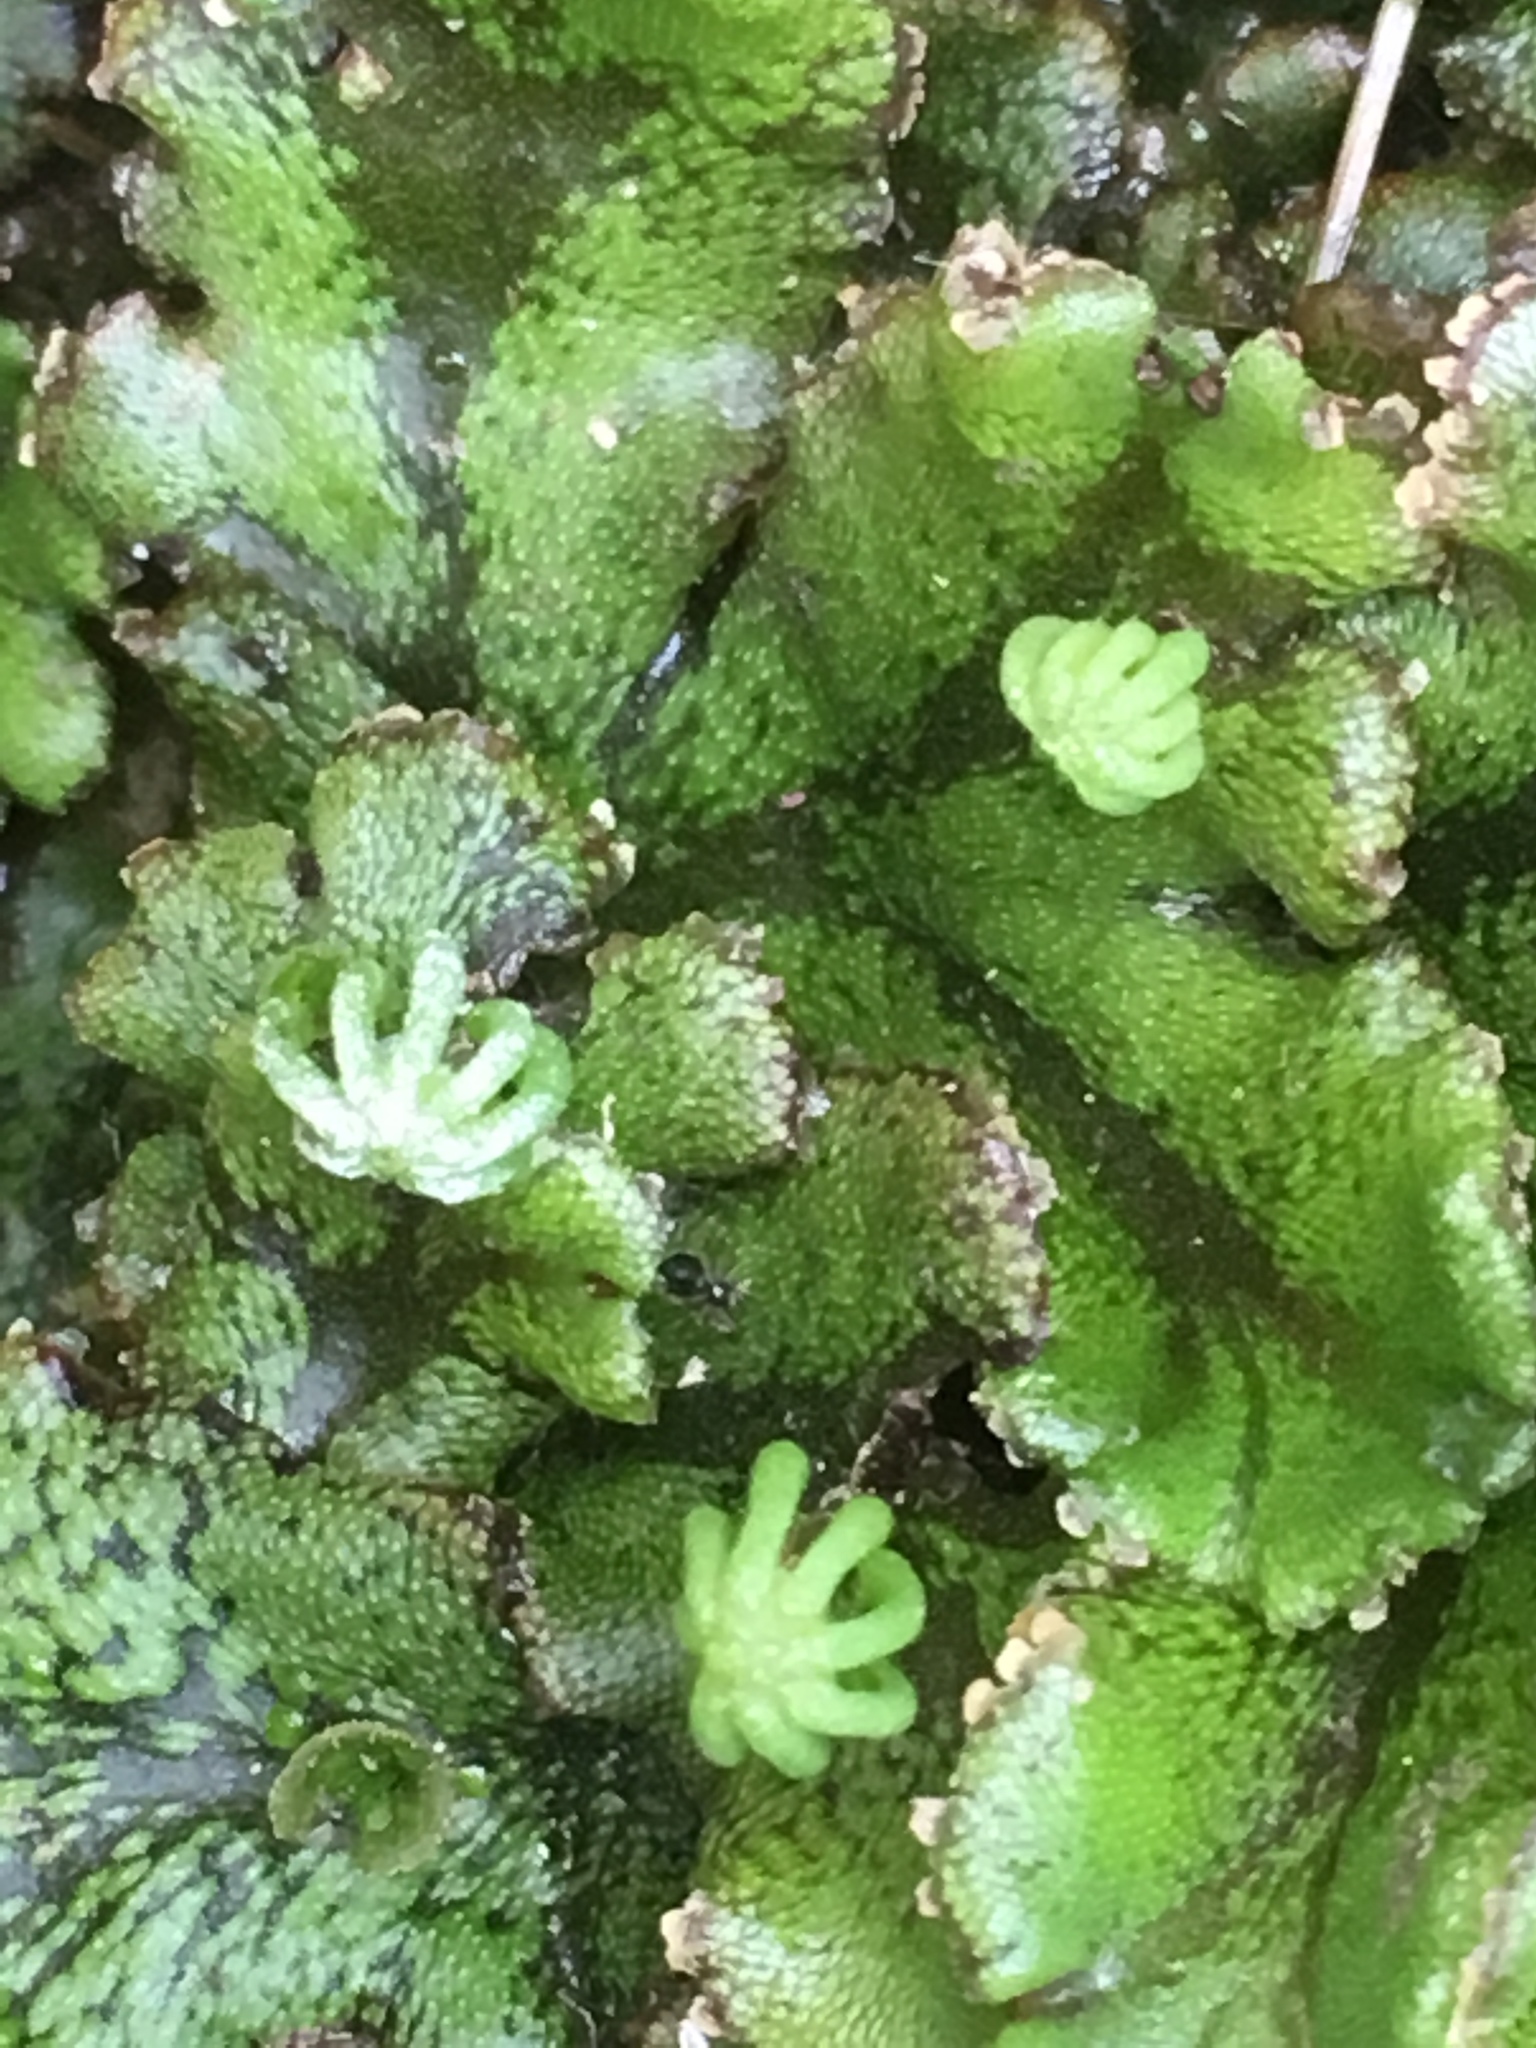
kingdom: Plantae
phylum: Marchantiophyta
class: Marchantiopsida
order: Marchantiales
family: Marchantiaceae
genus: Marchantia
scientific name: Marchantia polymorpha
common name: Common liverwort
